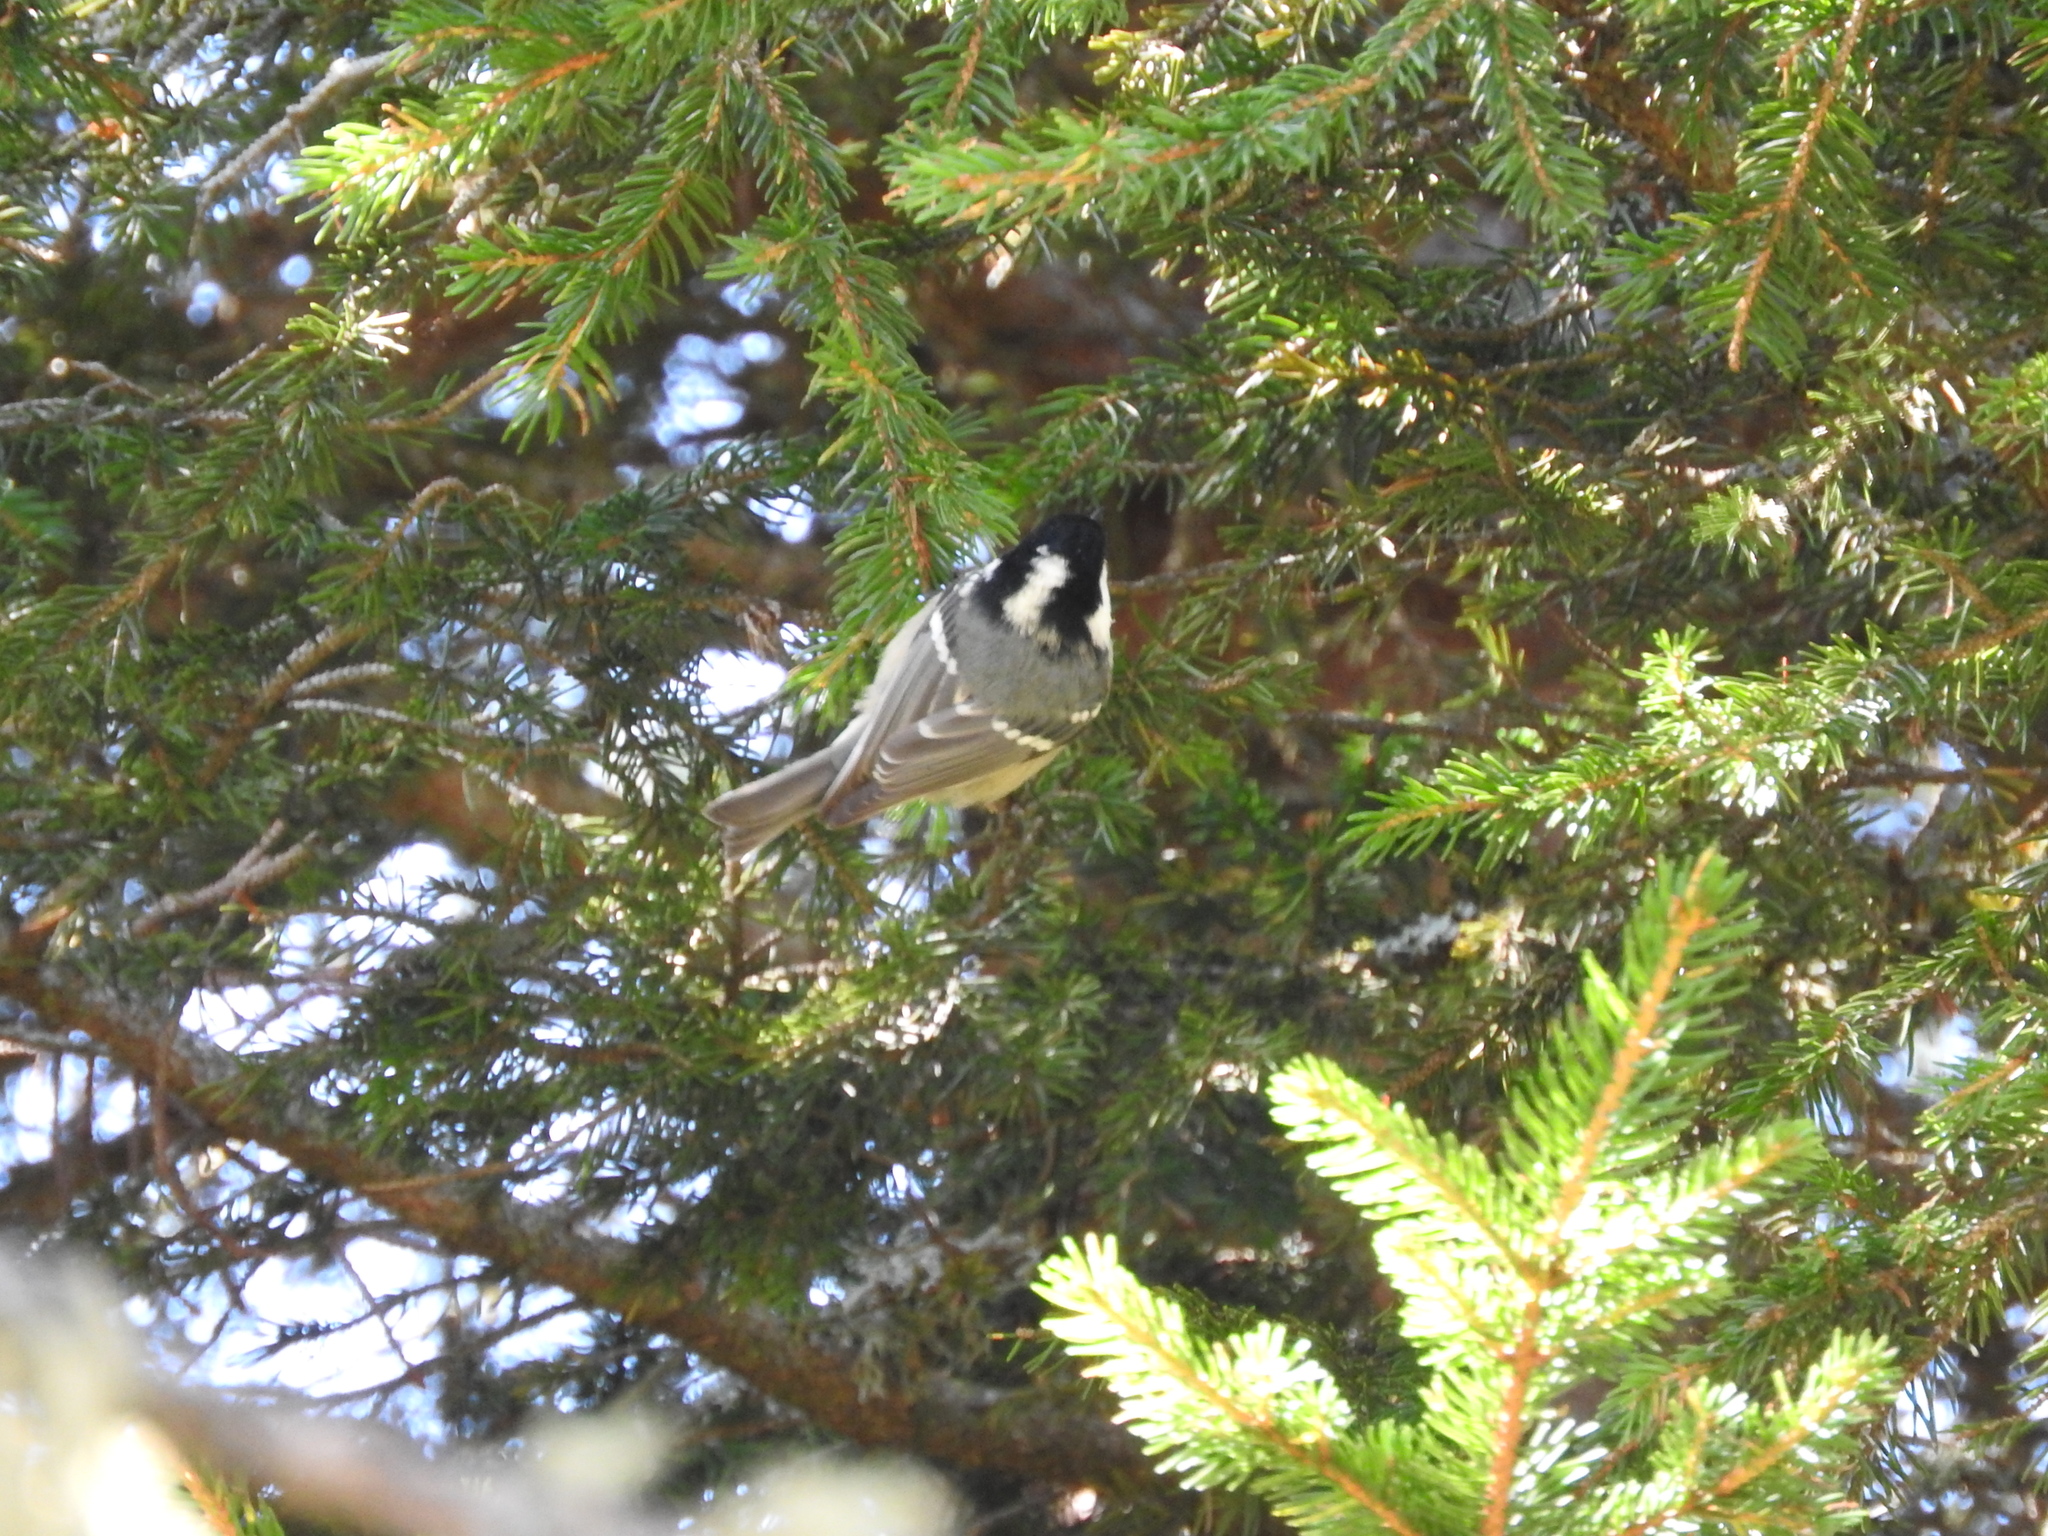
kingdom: Animalia
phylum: Chordata
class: Aves
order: Passeriformes
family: Paridae
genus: Periparus
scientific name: Periparus ater
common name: Coal tit
